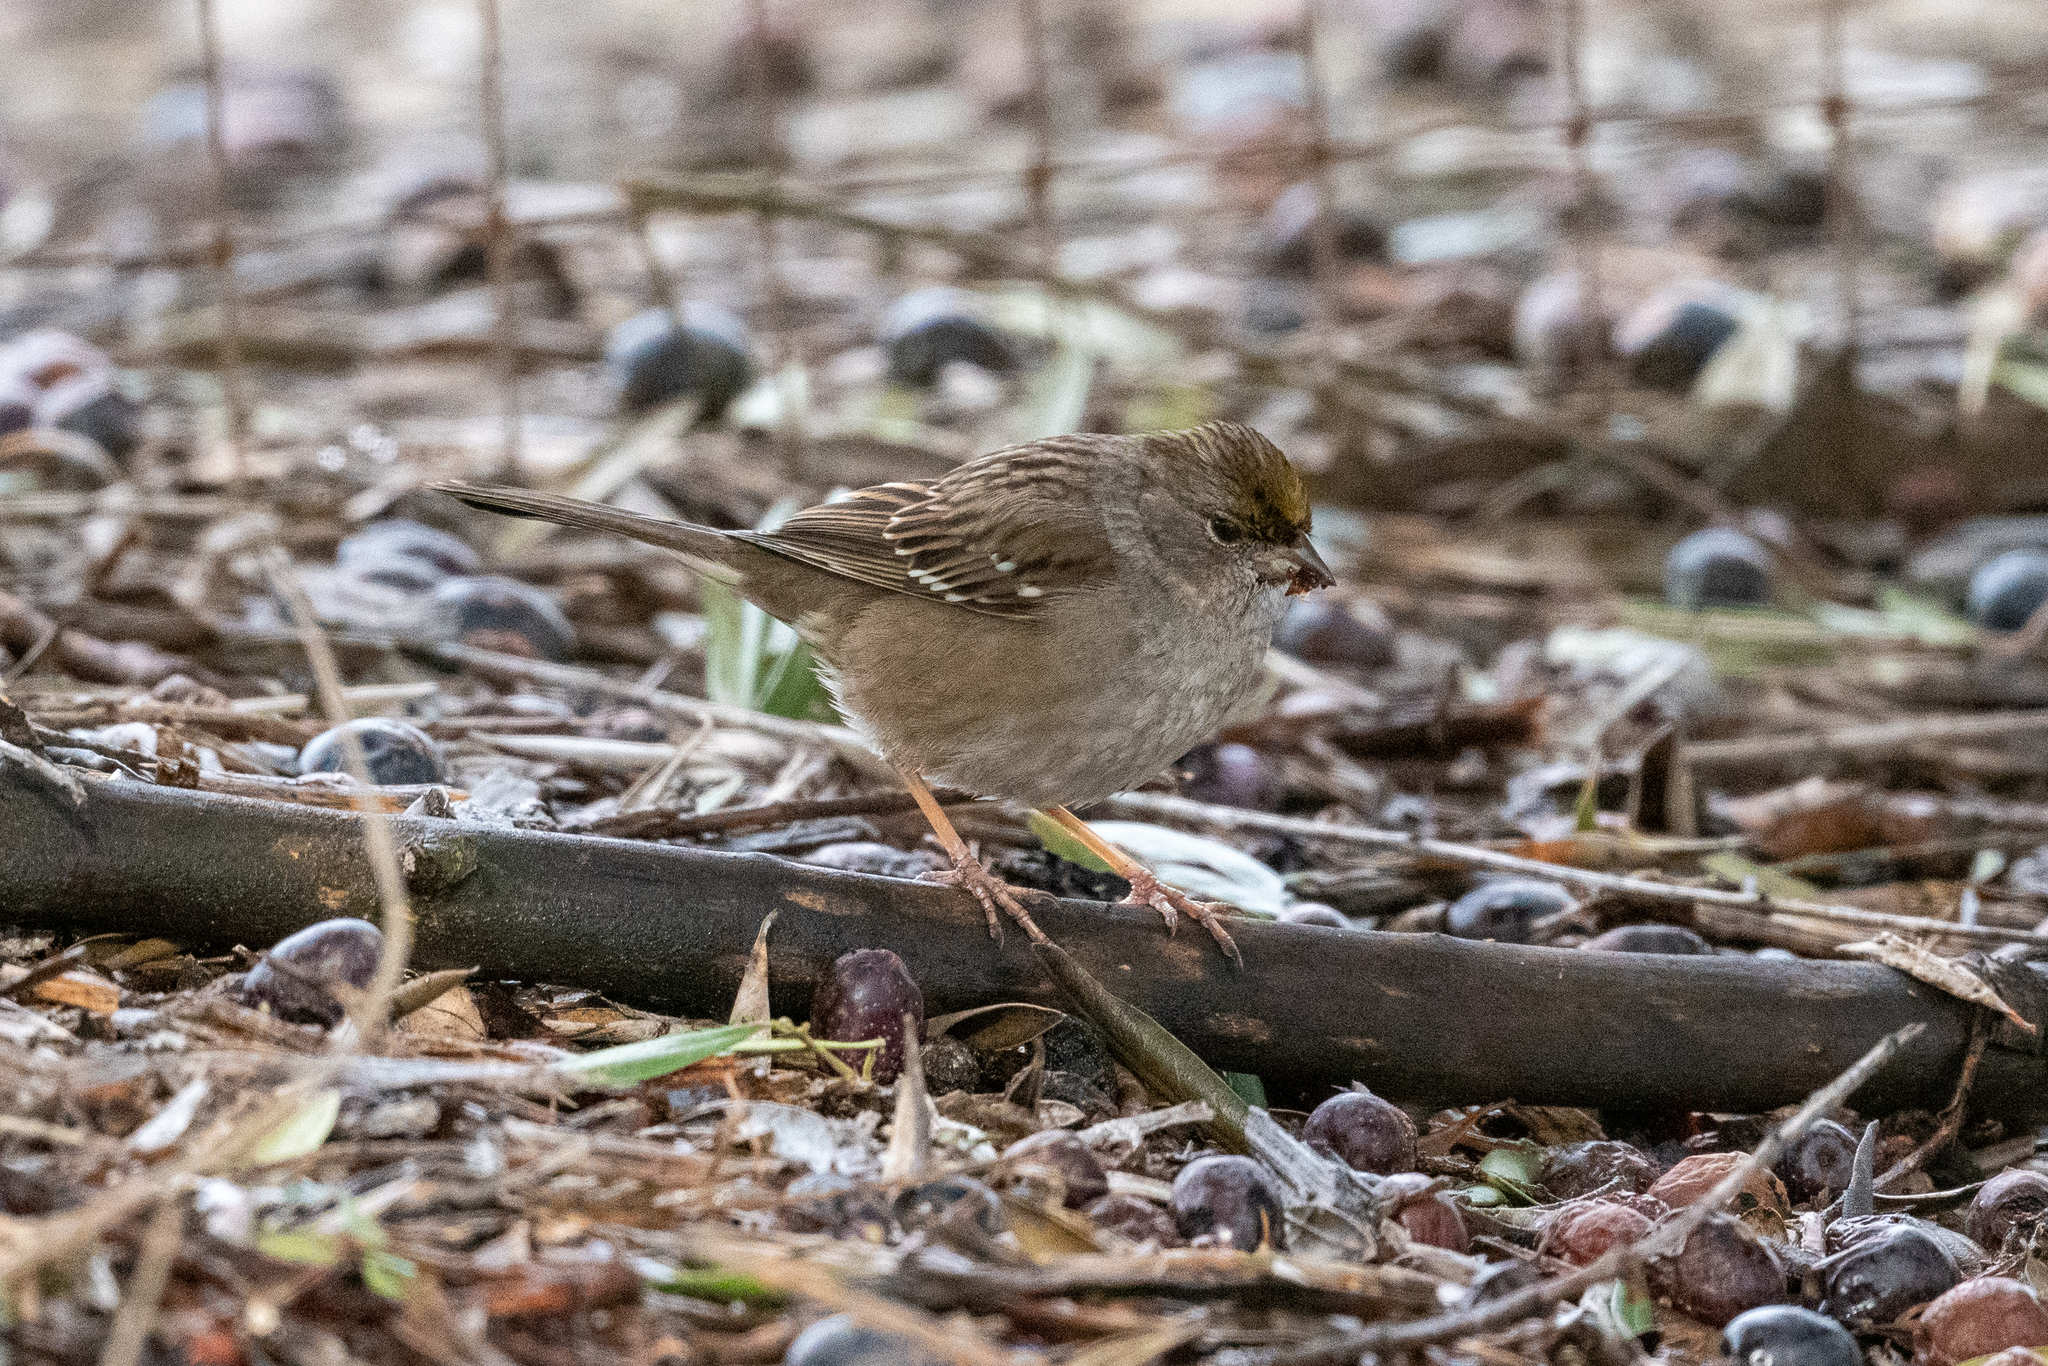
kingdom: Animalia
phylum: Chordata
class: Aves
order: Passeriformes
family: Passerellidae
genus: Zonotrichia
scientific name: Zonotrichia atricapilla
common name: Golden-crowned sparrow
